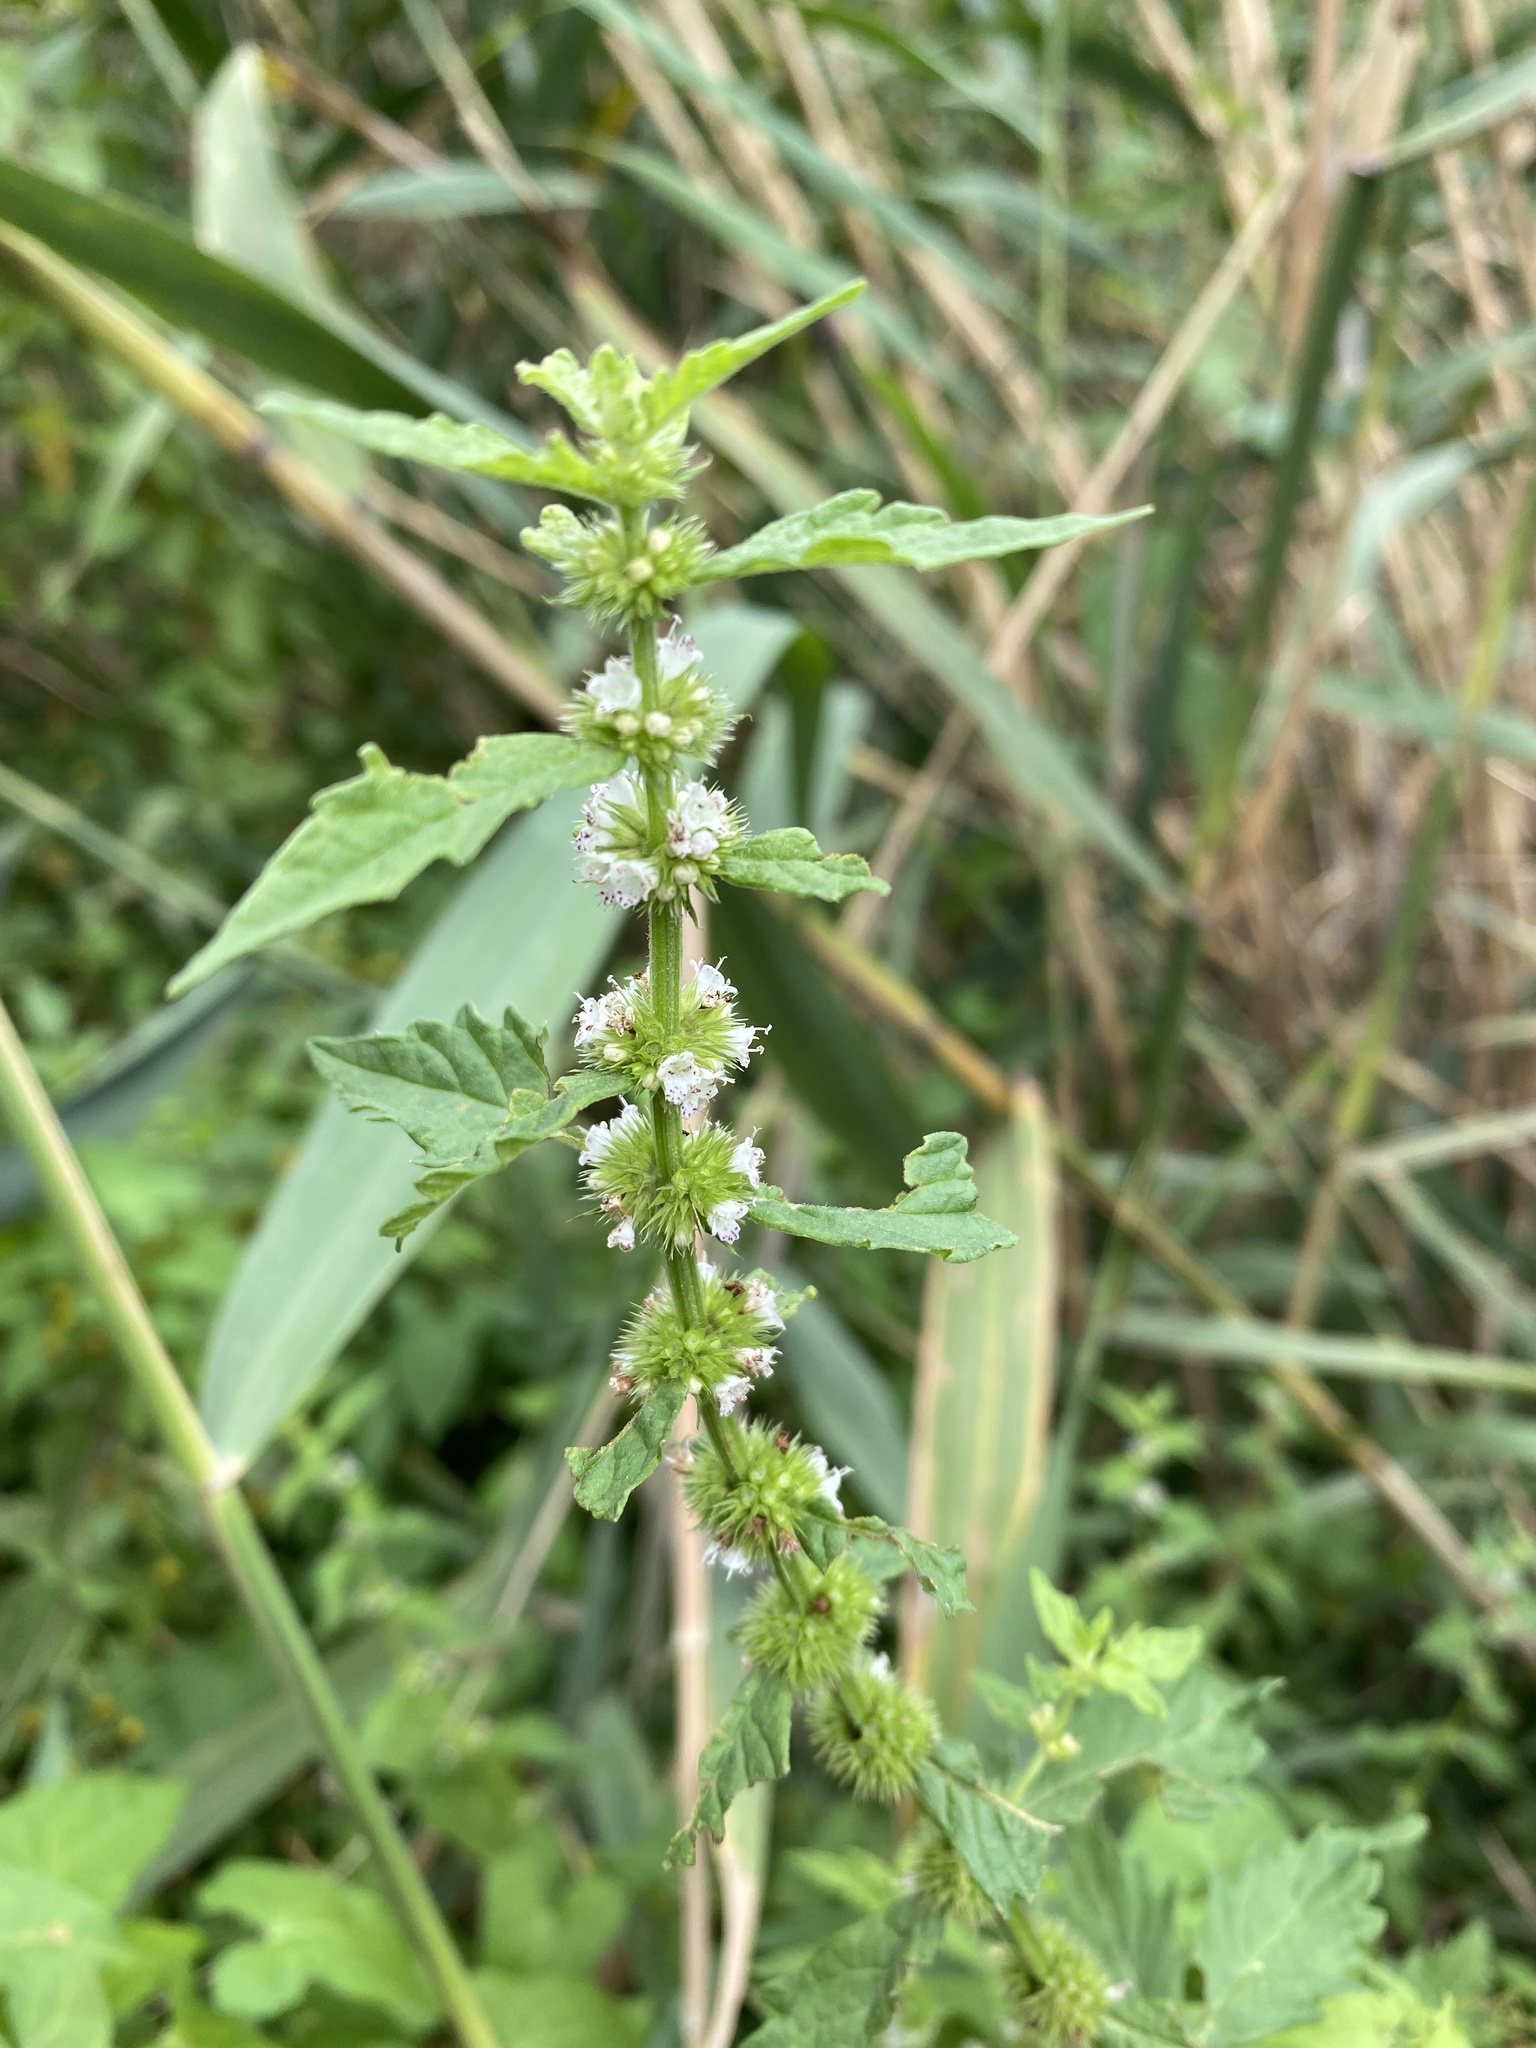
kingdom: Plantae
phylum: Tracheophyta
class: Magnoliopsida
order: Lamiales
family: Lamiaceae
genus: Lycopus
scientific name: Lycopus europaeus
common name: European bugleweed
